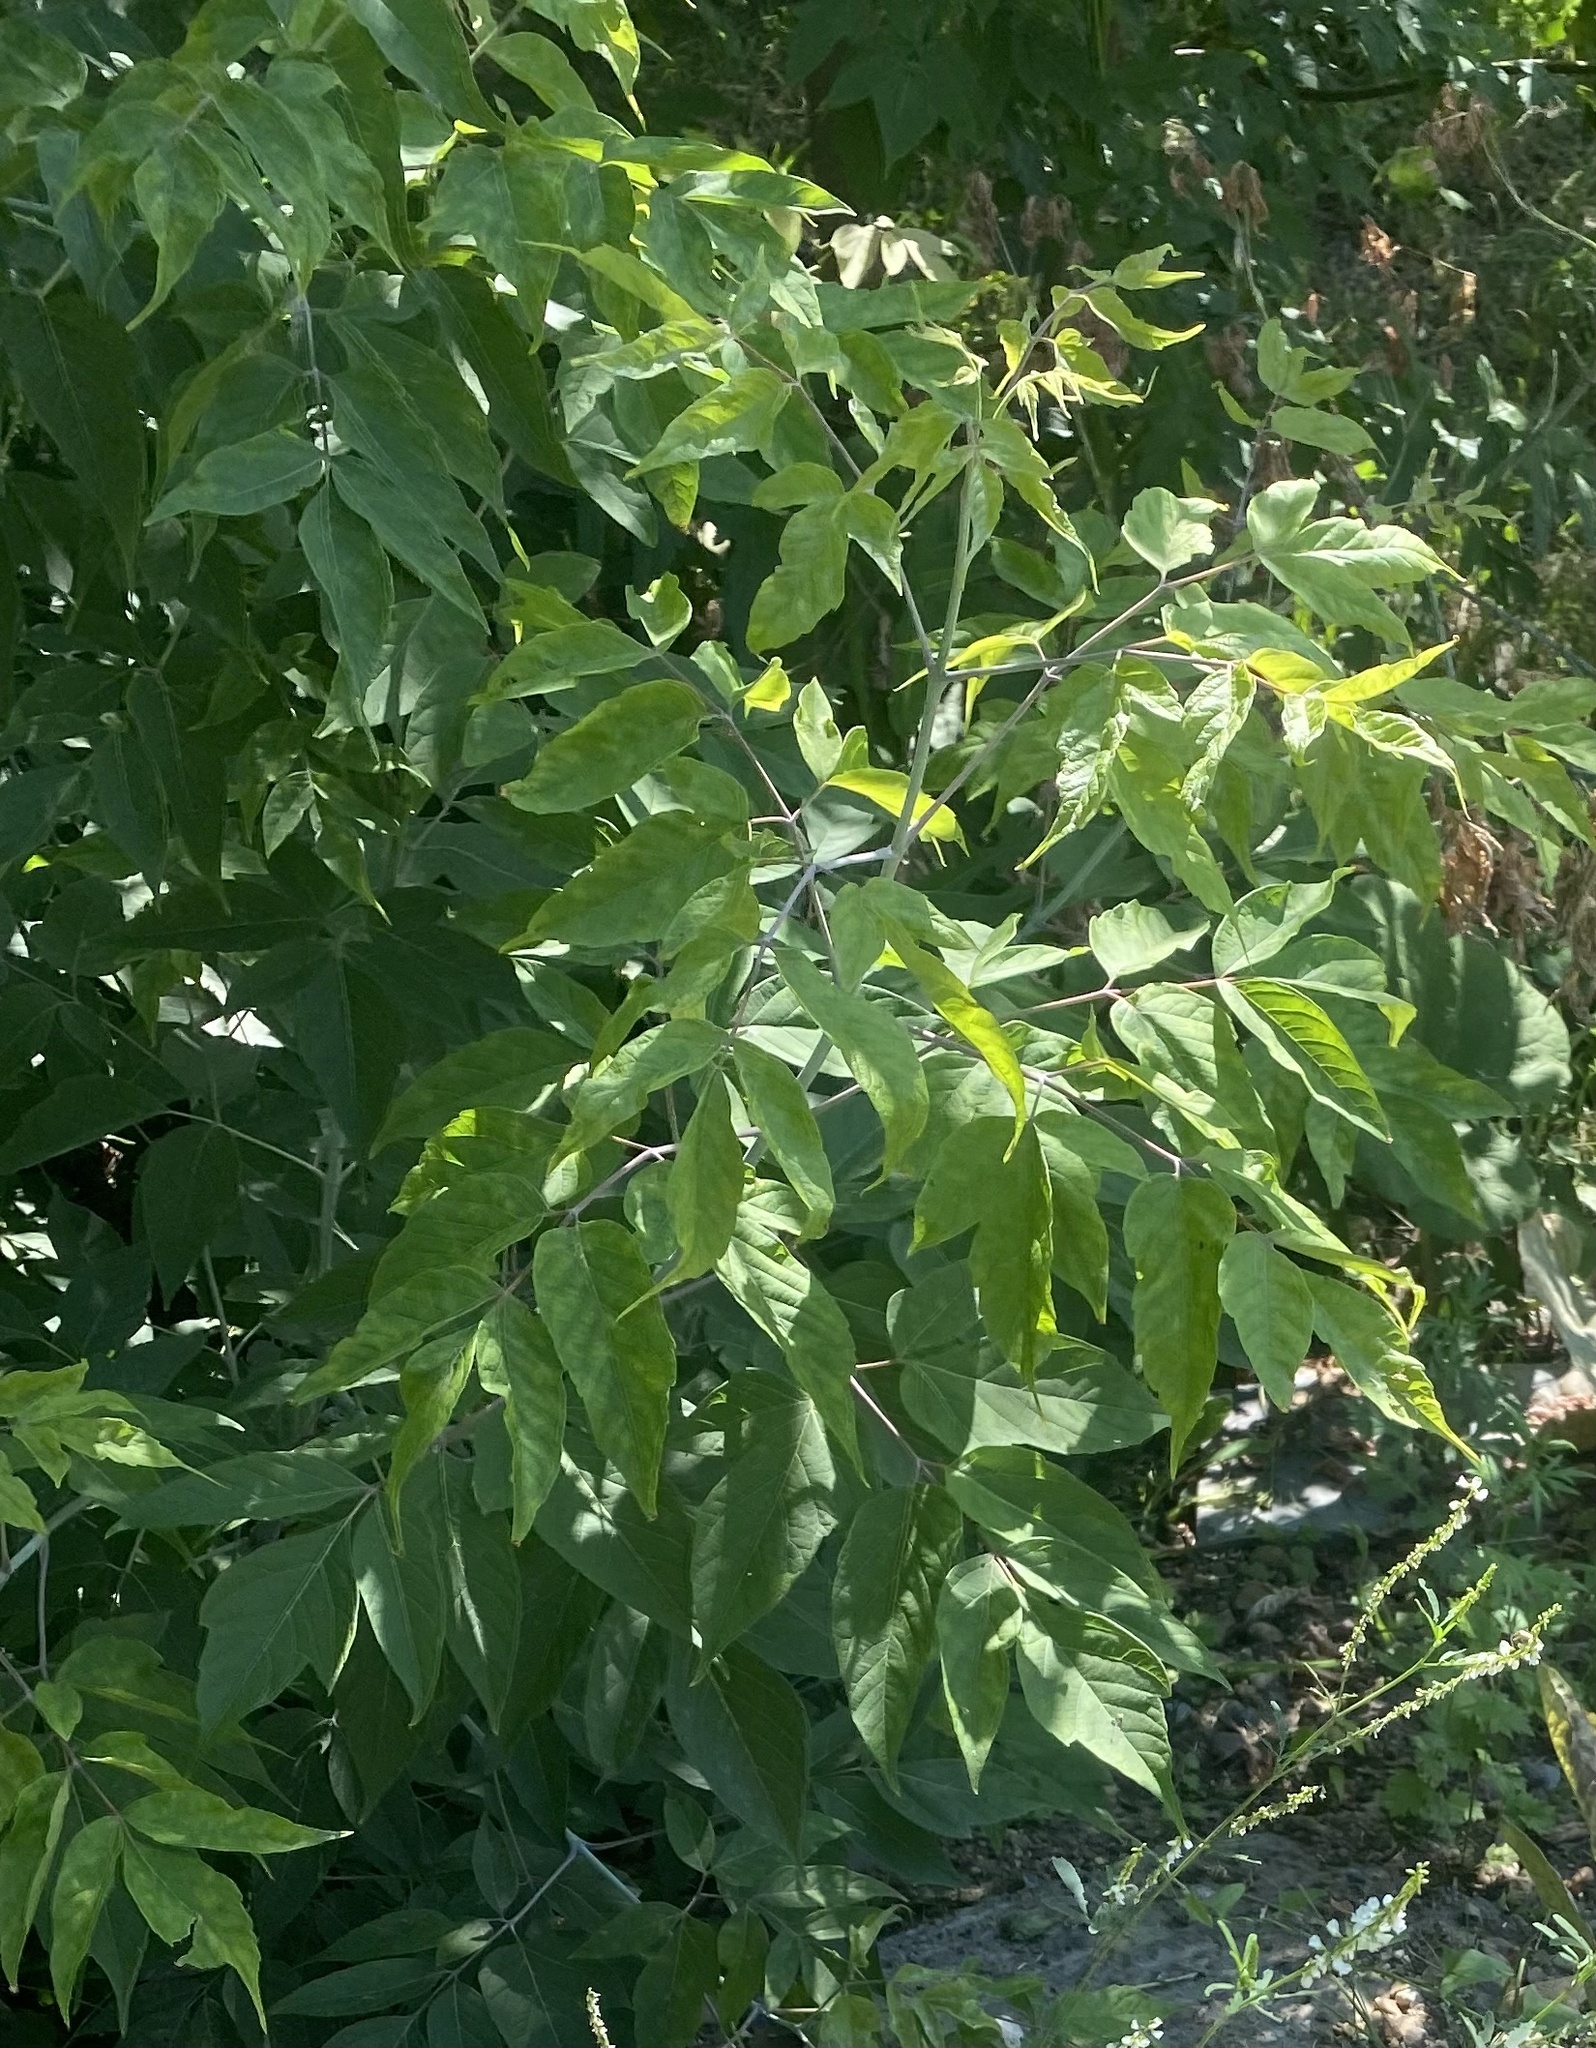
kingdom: Plantae
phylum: Tracheophyta
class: Magnoliopsida
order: Sapindales
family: Sapindaceae
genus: Acer
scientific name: Acer negundo
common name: Ashleaf maple
